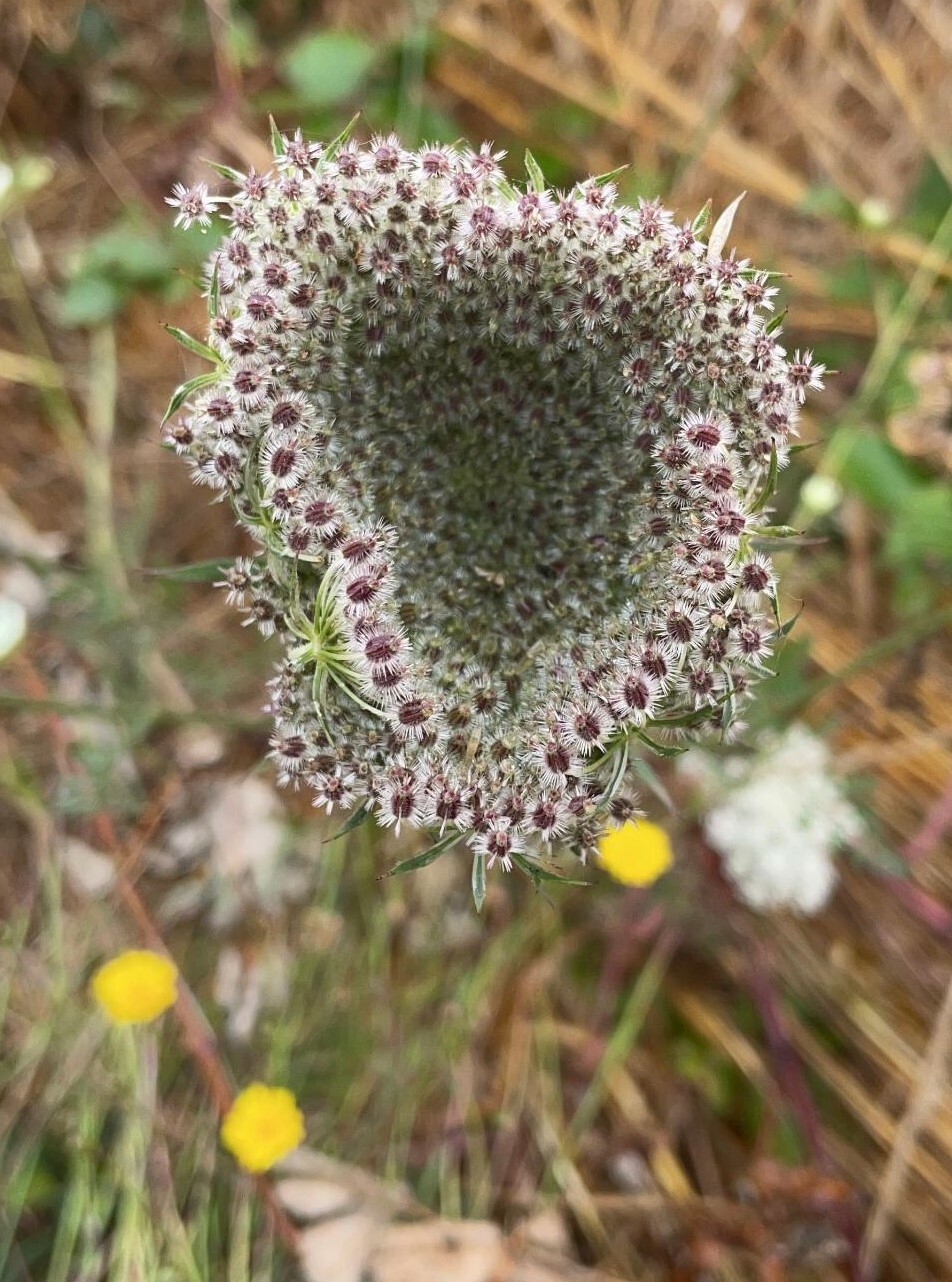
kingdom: Plantae
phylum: Tracheophyta
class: Magnoliopsida
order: Apiales
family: Apiaceae
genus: Daucus
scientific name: Daucus carota
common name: Wild carrot
